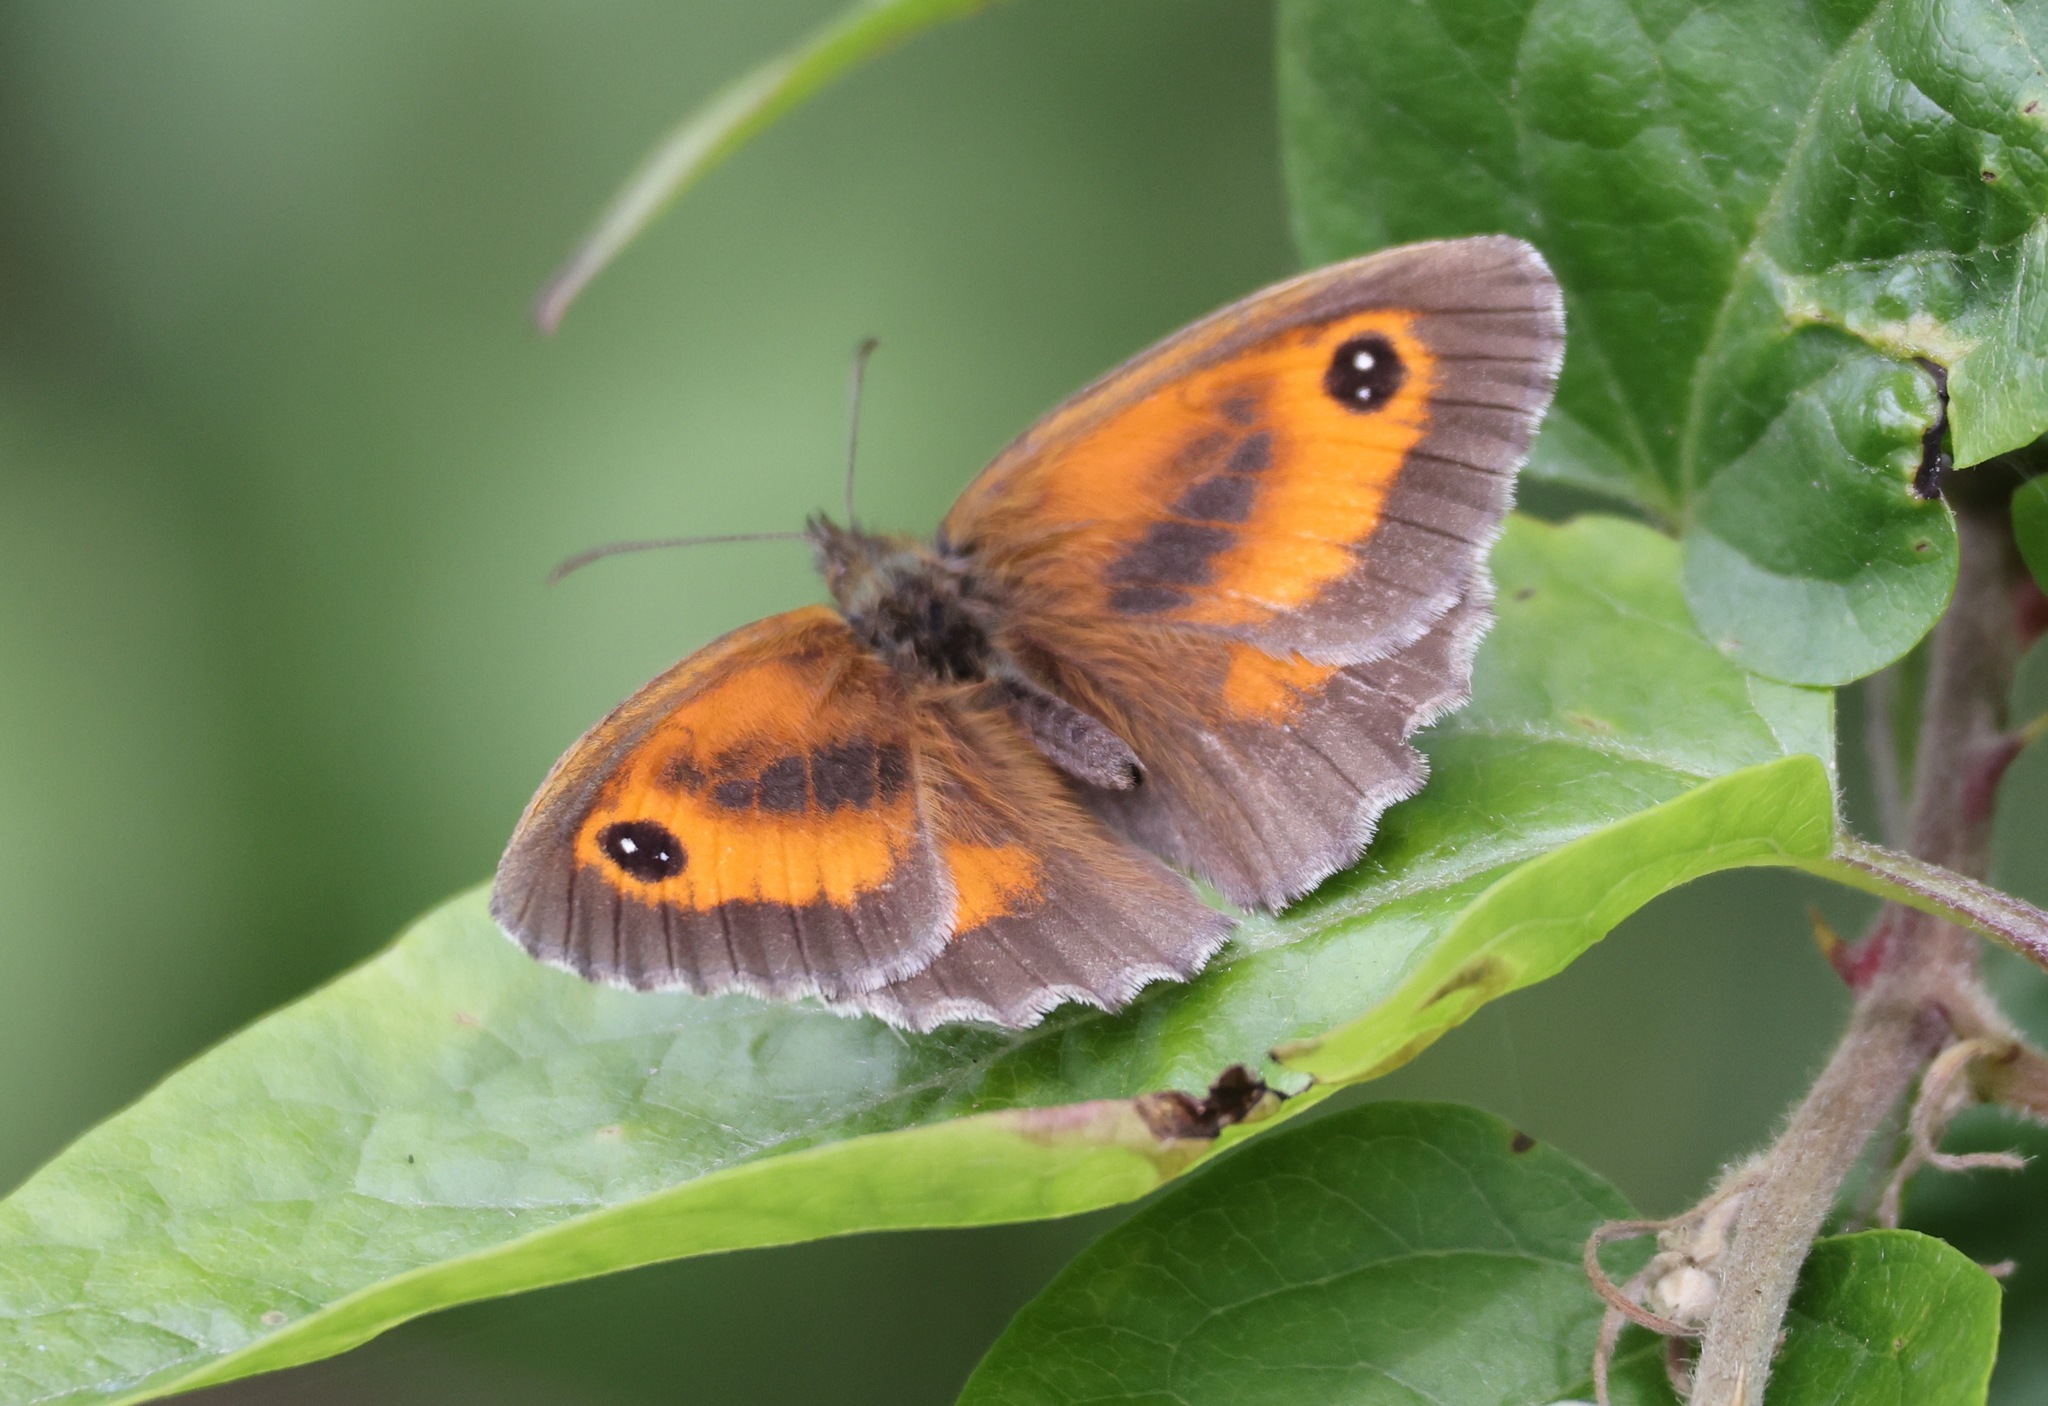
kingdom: Animalia
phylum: Arthropoda
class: Insecta
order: Lepidoptera
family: Nymphalidae
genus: Pyronia
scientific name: Pyronia tithonus
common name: Gatekeeper
